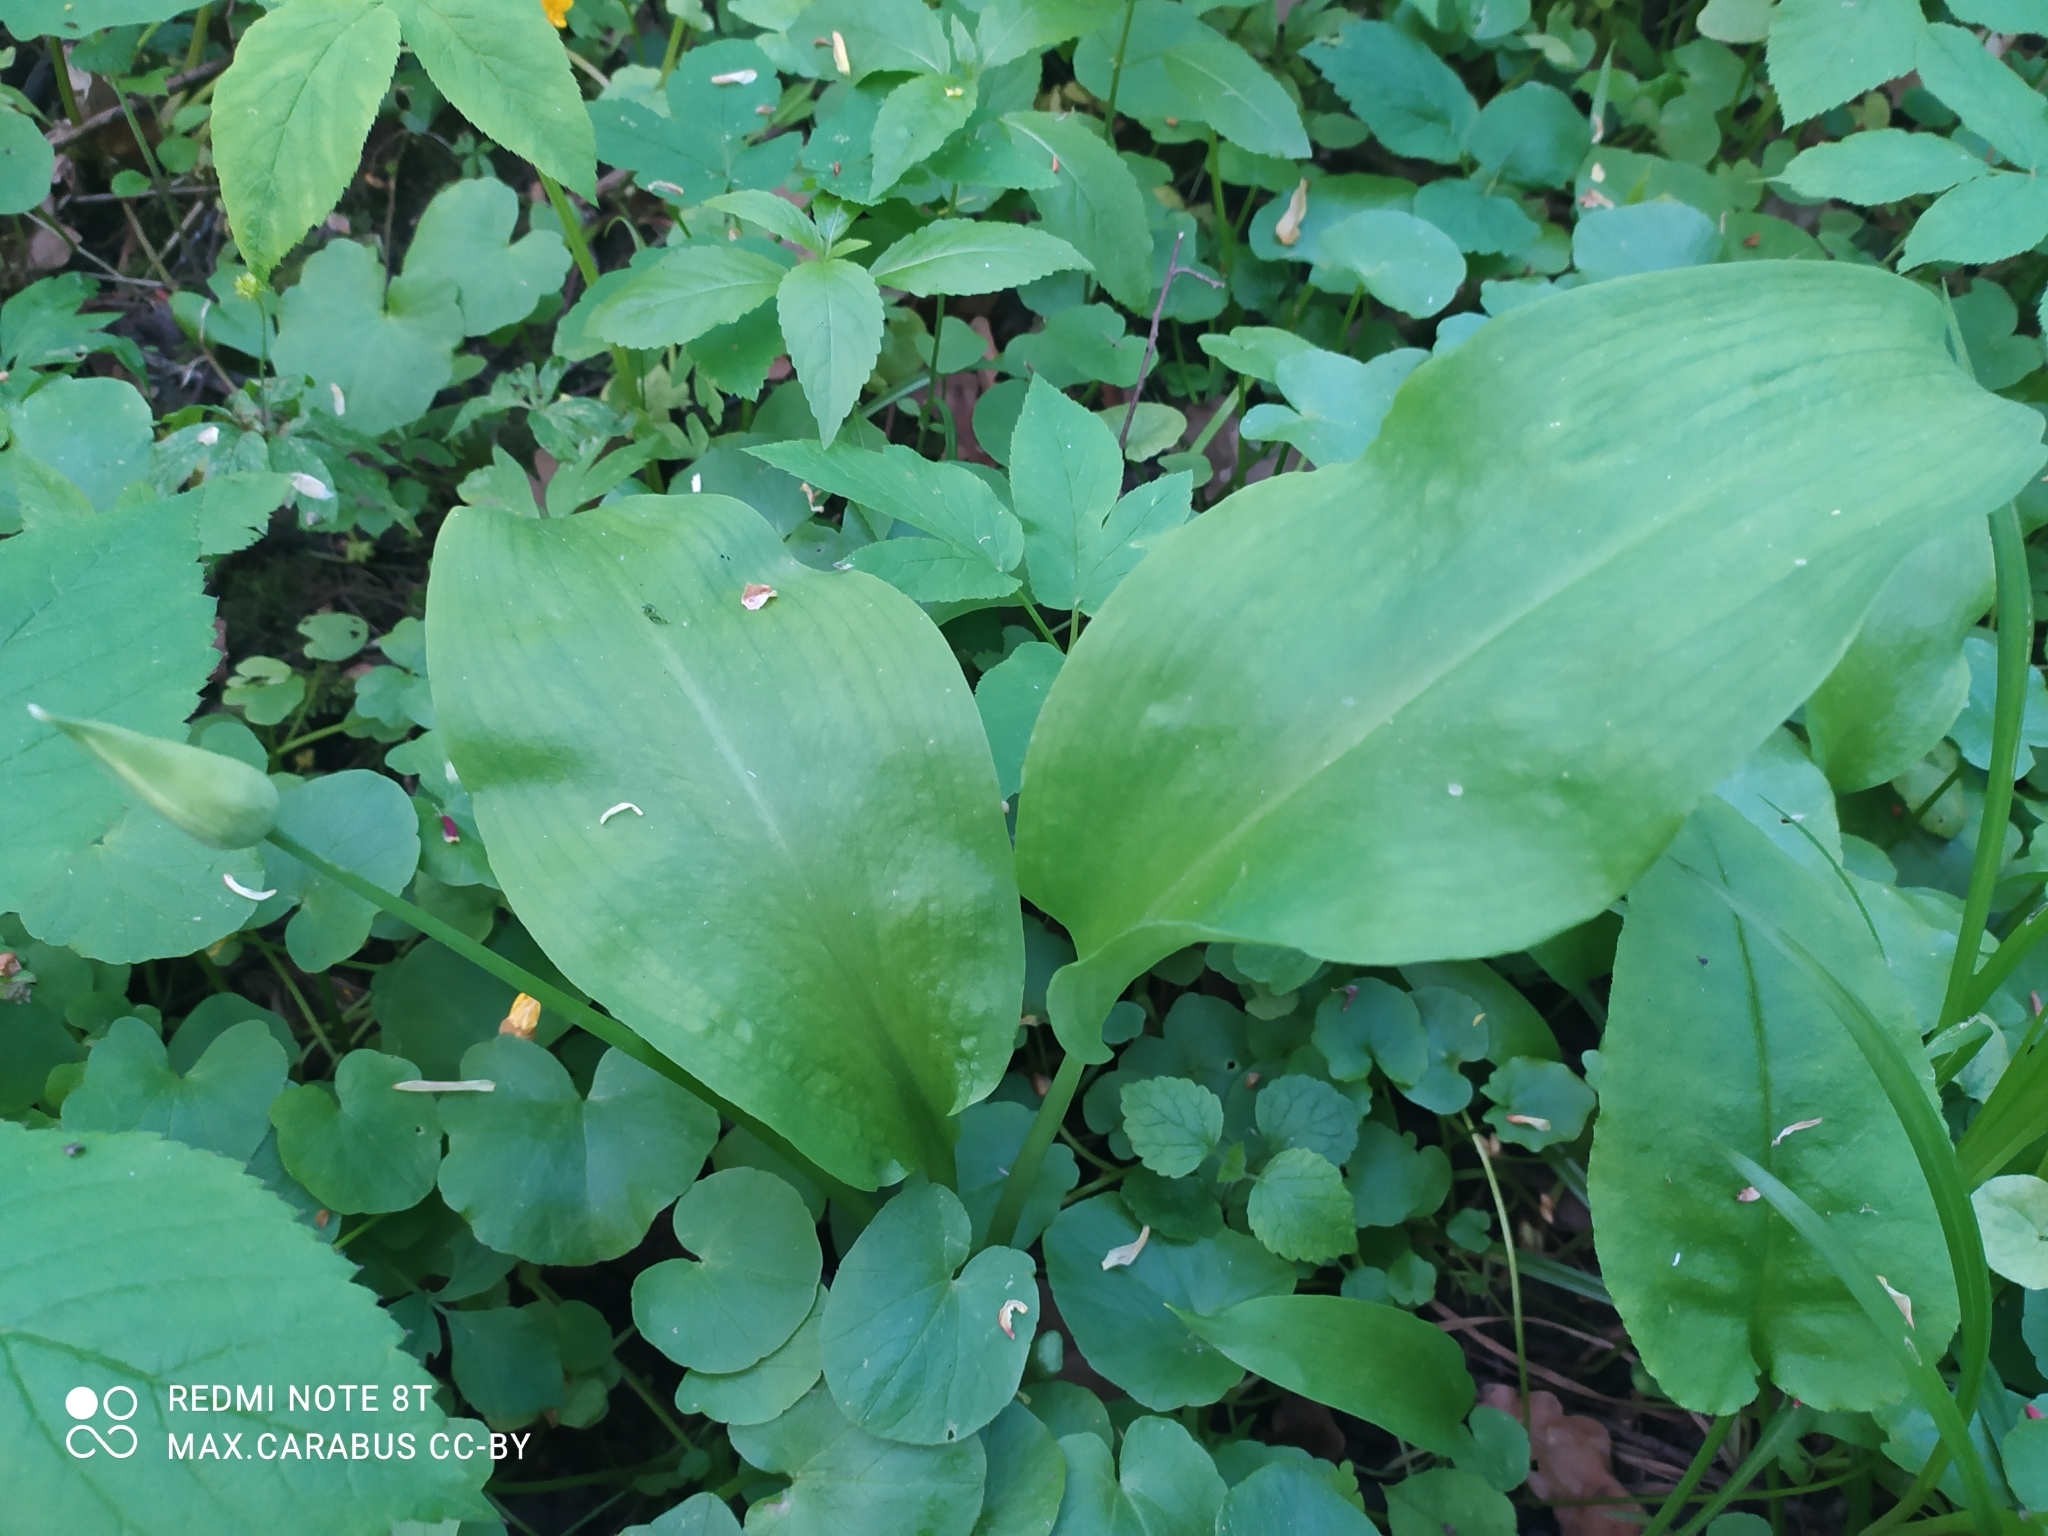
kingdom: Plantae
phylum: Tracheophyta
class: Liliopsida
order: Asparagales
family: Amaryllidaceae
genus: Allium
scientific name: Allium ursinum
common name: Ramsons
